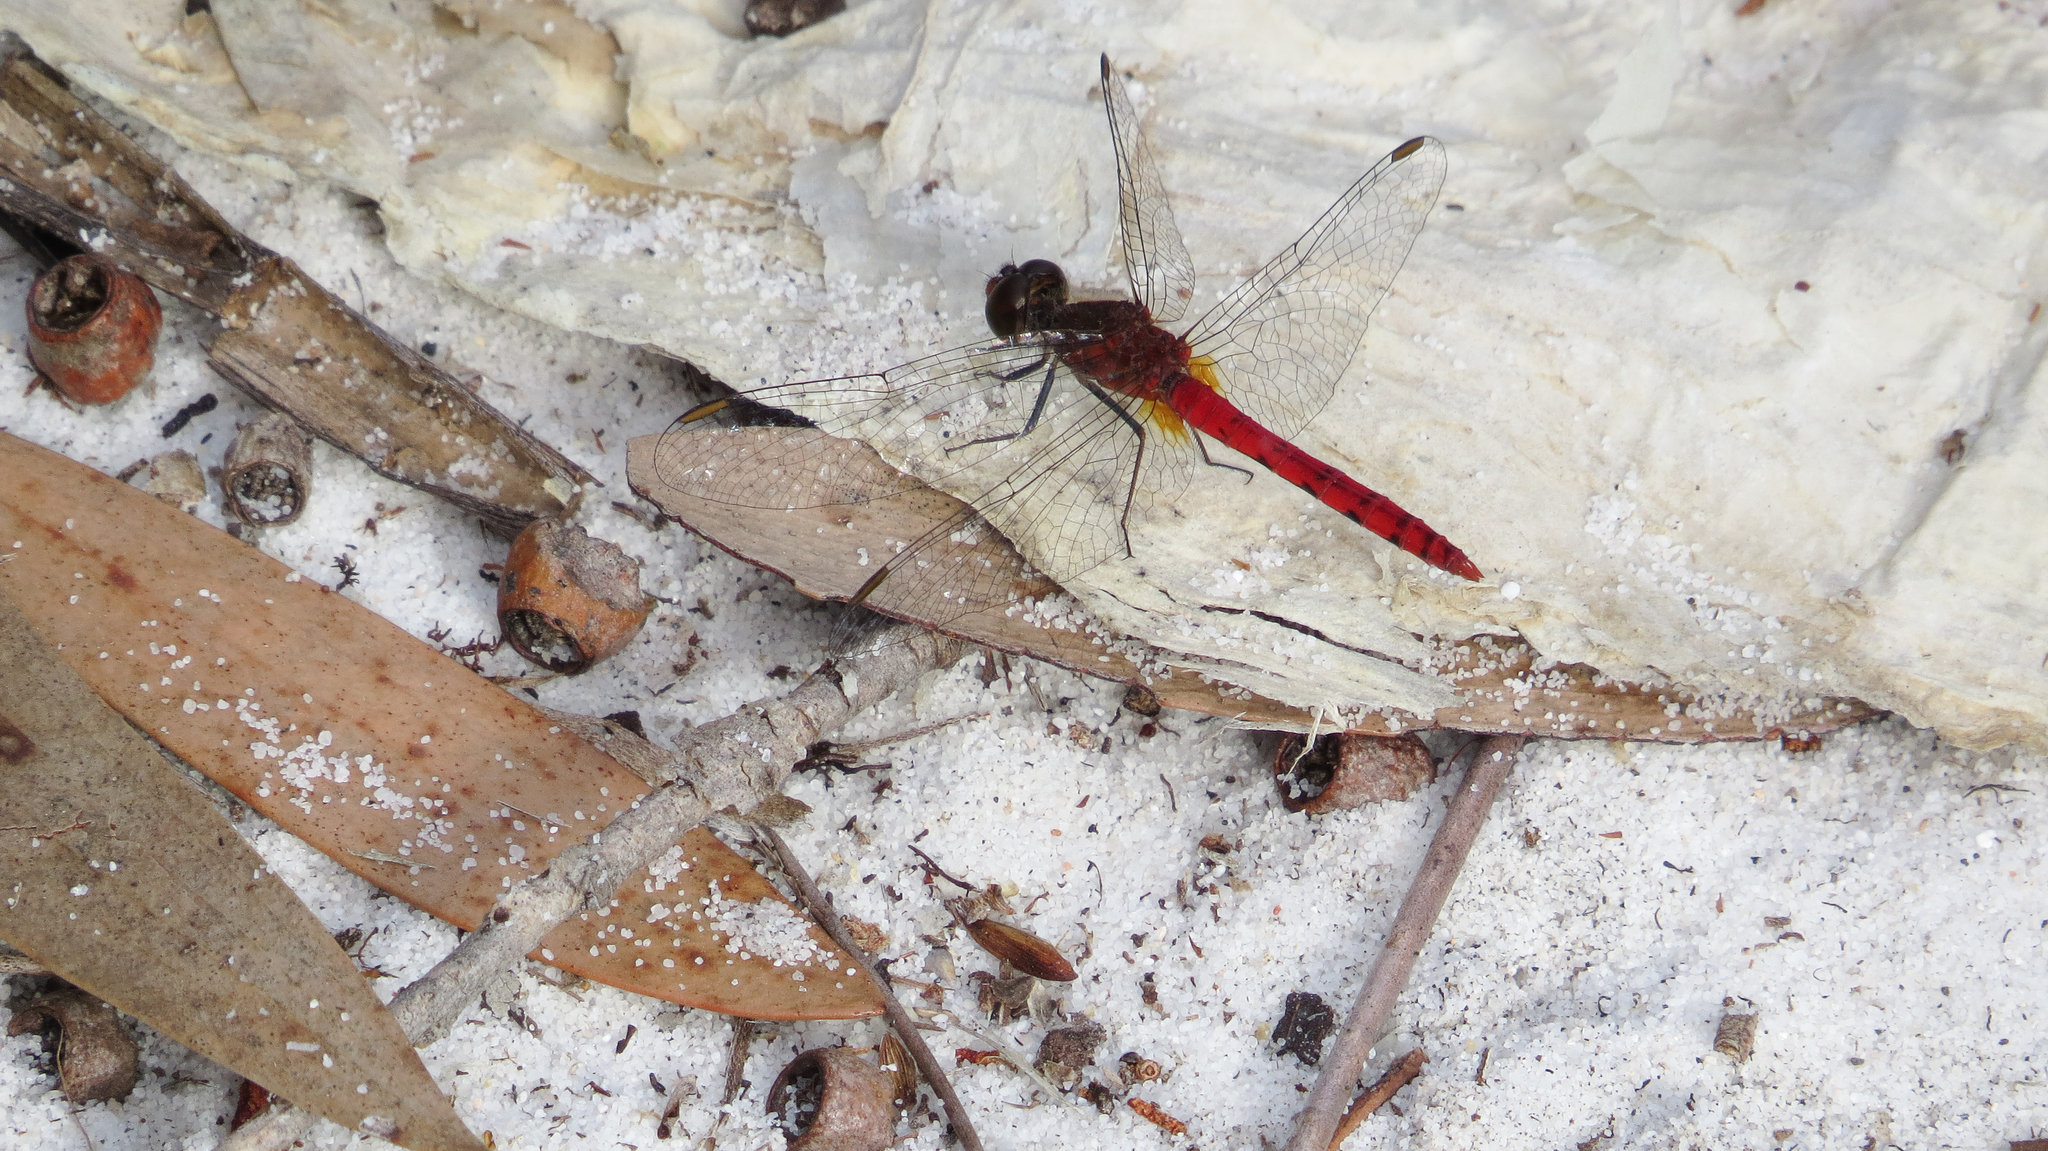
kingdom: Animalia
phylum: Arthropoda
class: Insecta
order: Odonata
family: Libellulidae
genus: Nannodiplax
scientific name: Nannodiplax rubra
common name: Pygmy percher
